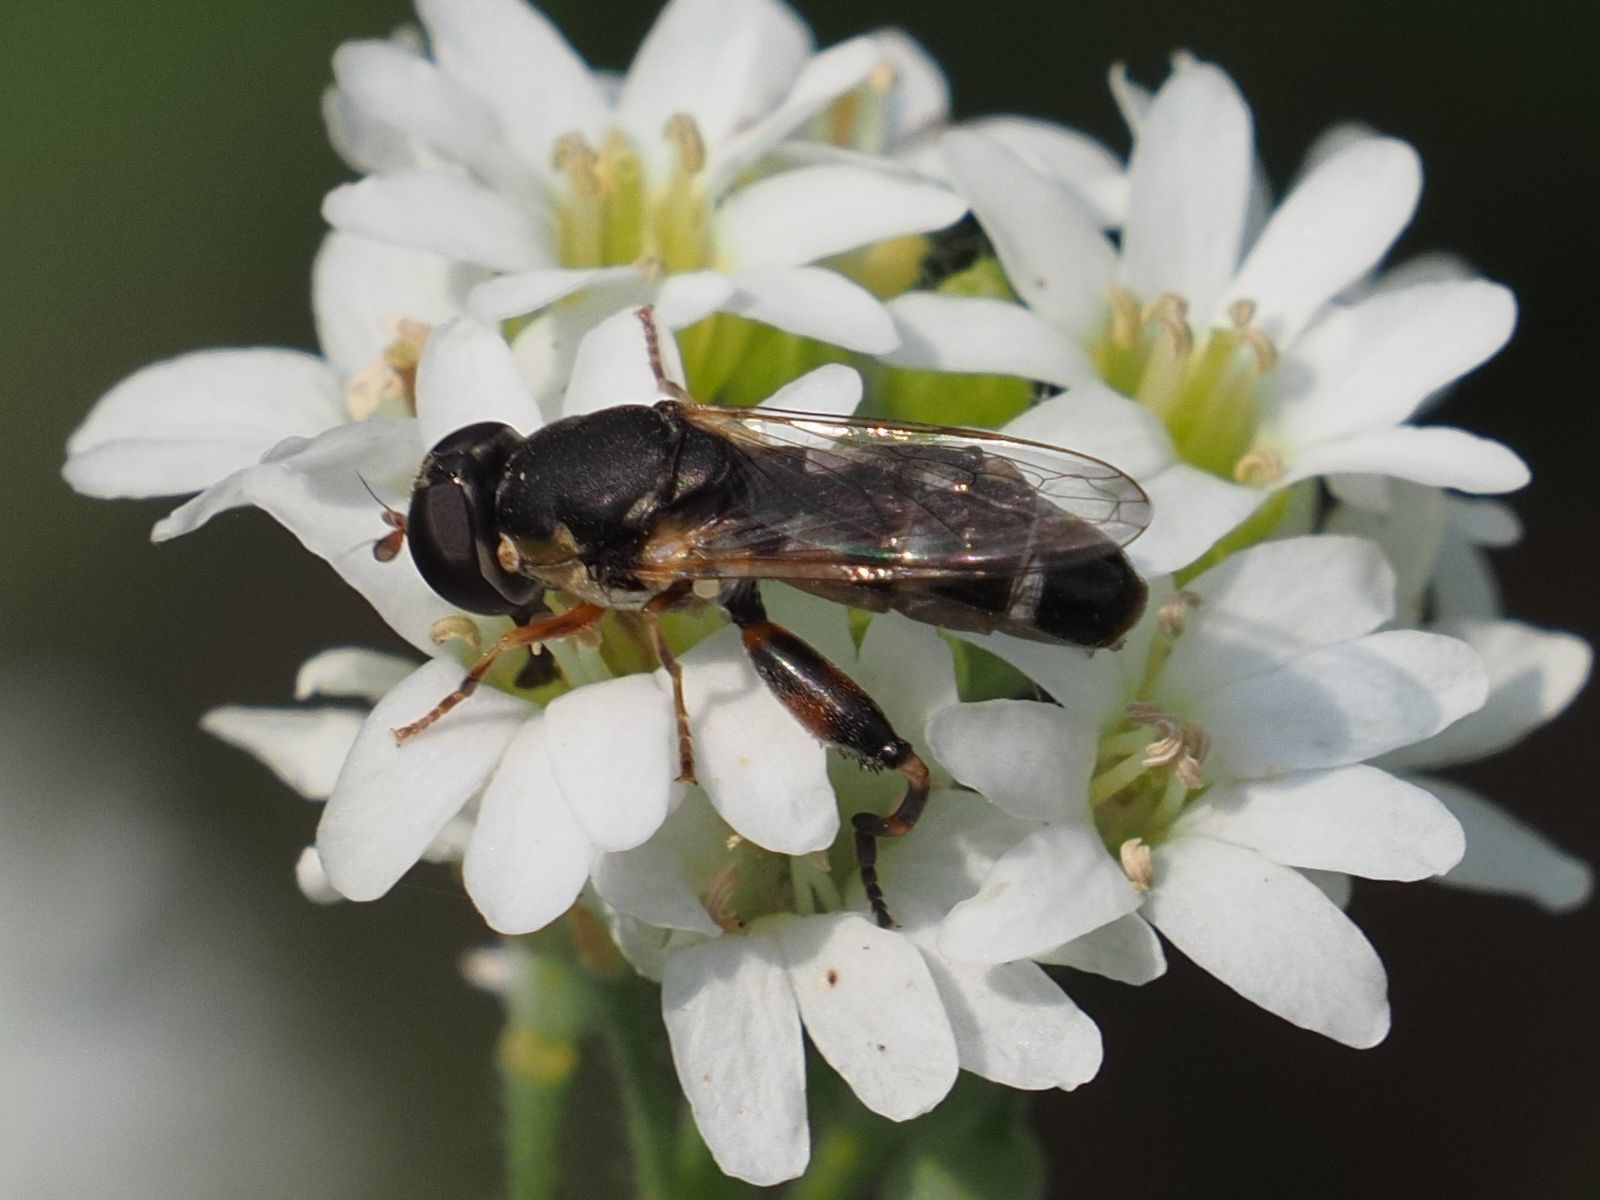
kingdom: Animalia
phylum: Arthropoda
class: Insecta
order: Diptera
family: Syrphidae
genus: Syritta
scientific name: Syritta pipiens
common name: Hover fly
